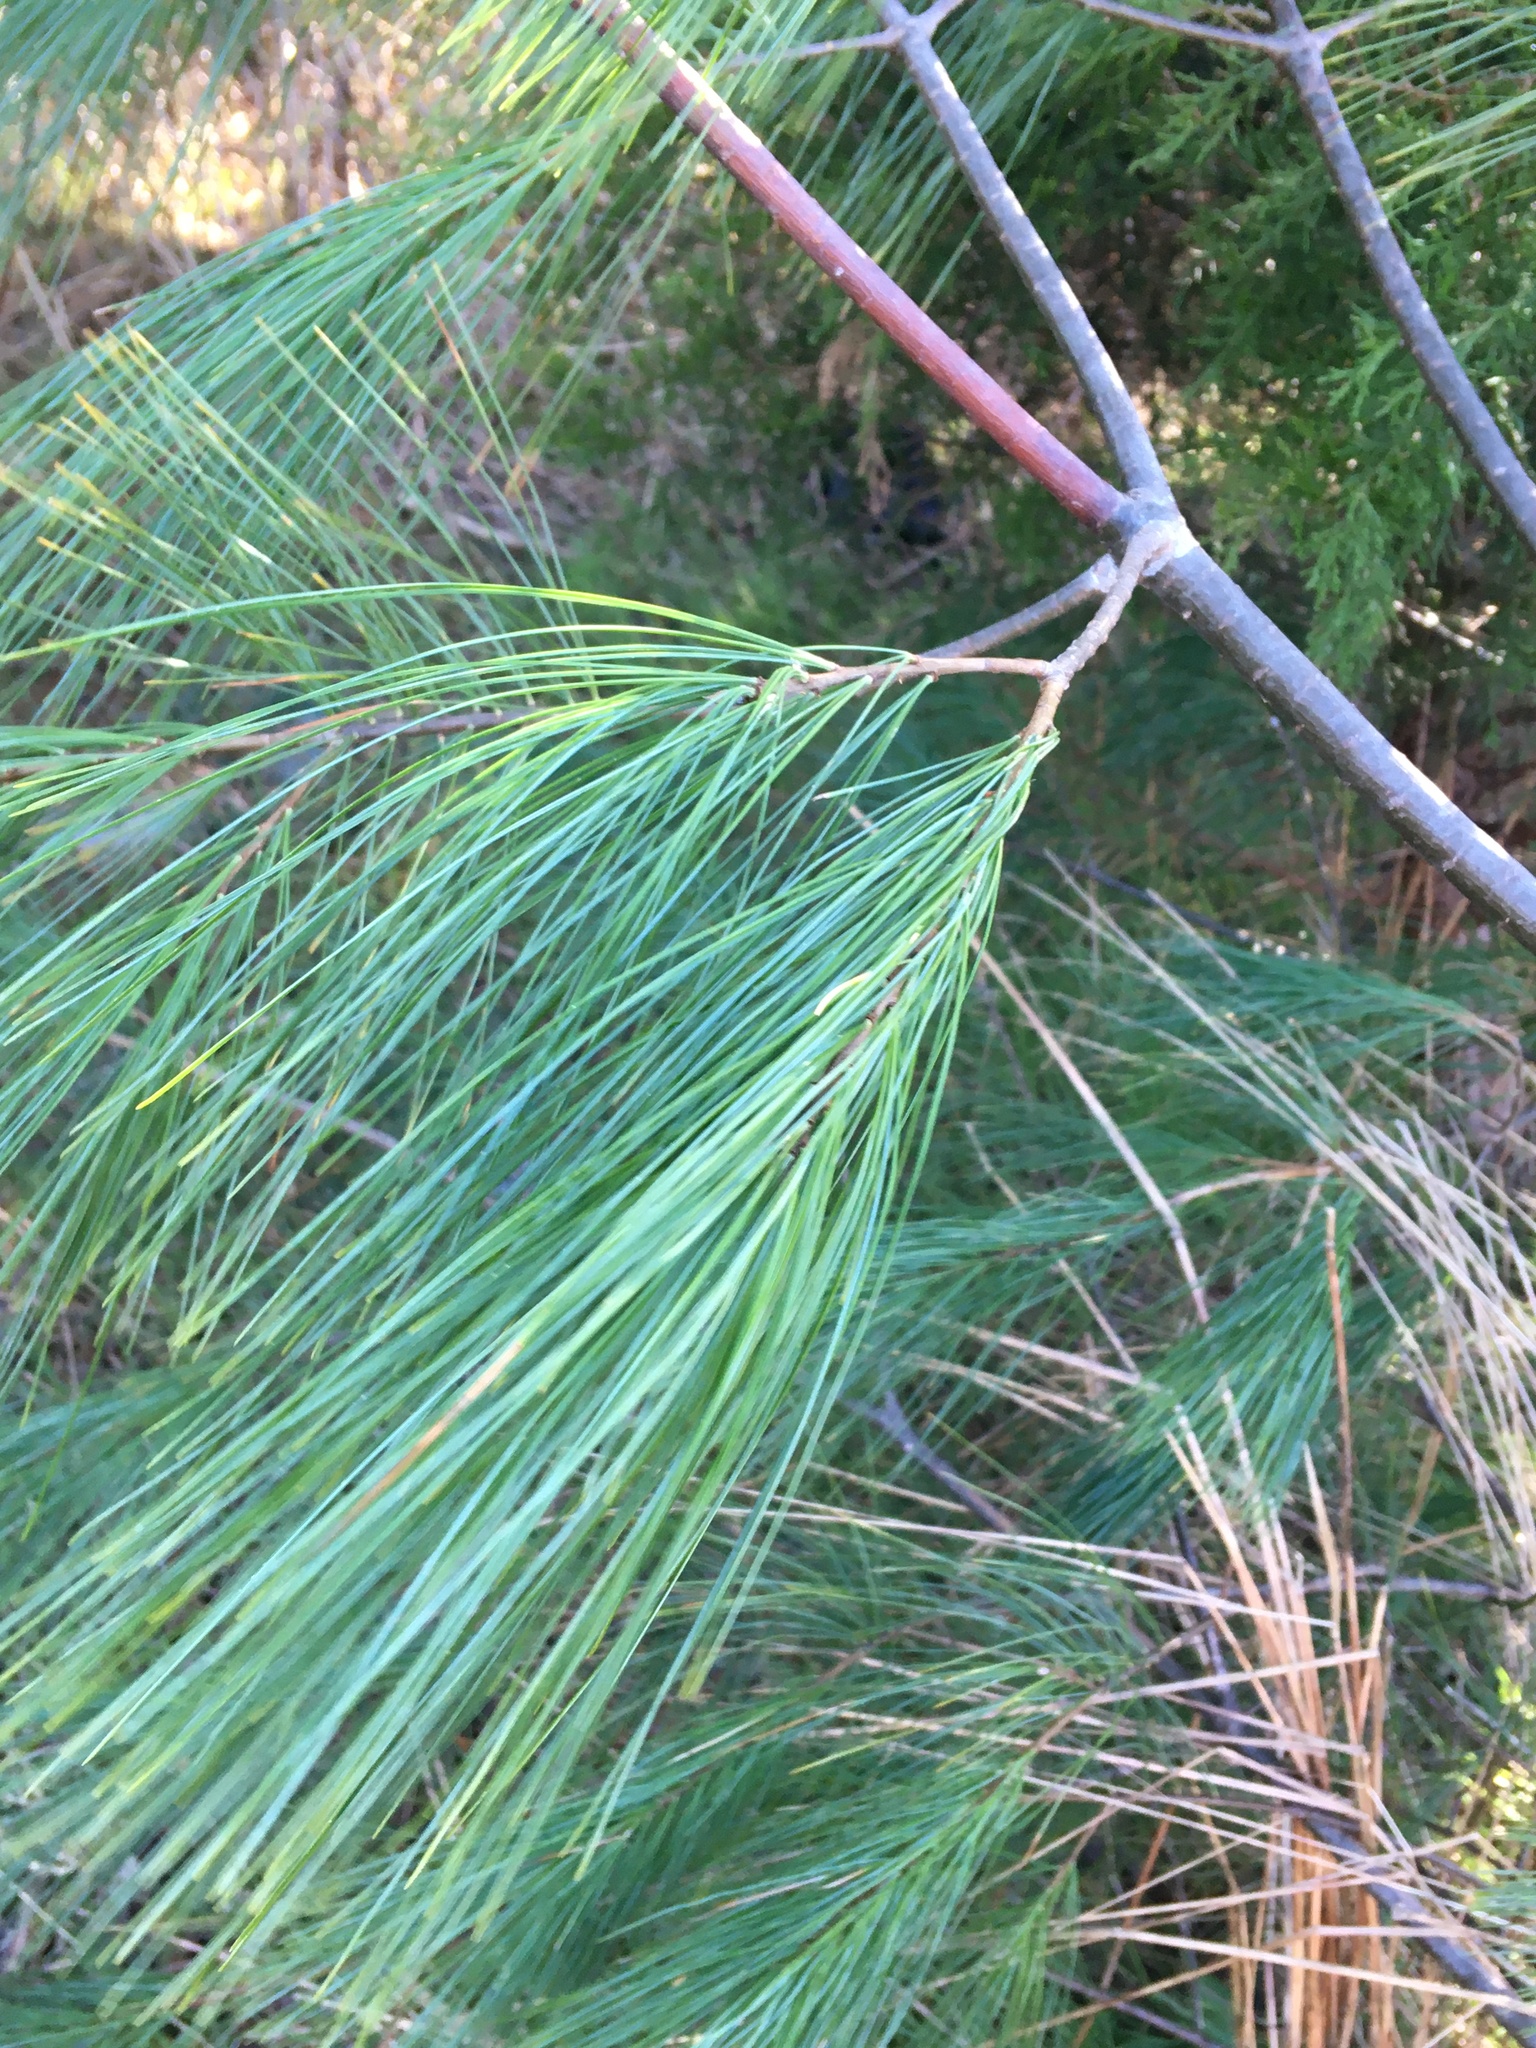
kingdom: Plantae
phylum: Tracheophyta
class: Pinopsida
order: Pinales
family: Pinaceae
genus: Pinus
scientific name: Pinus strobus
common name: Weymouth pine
